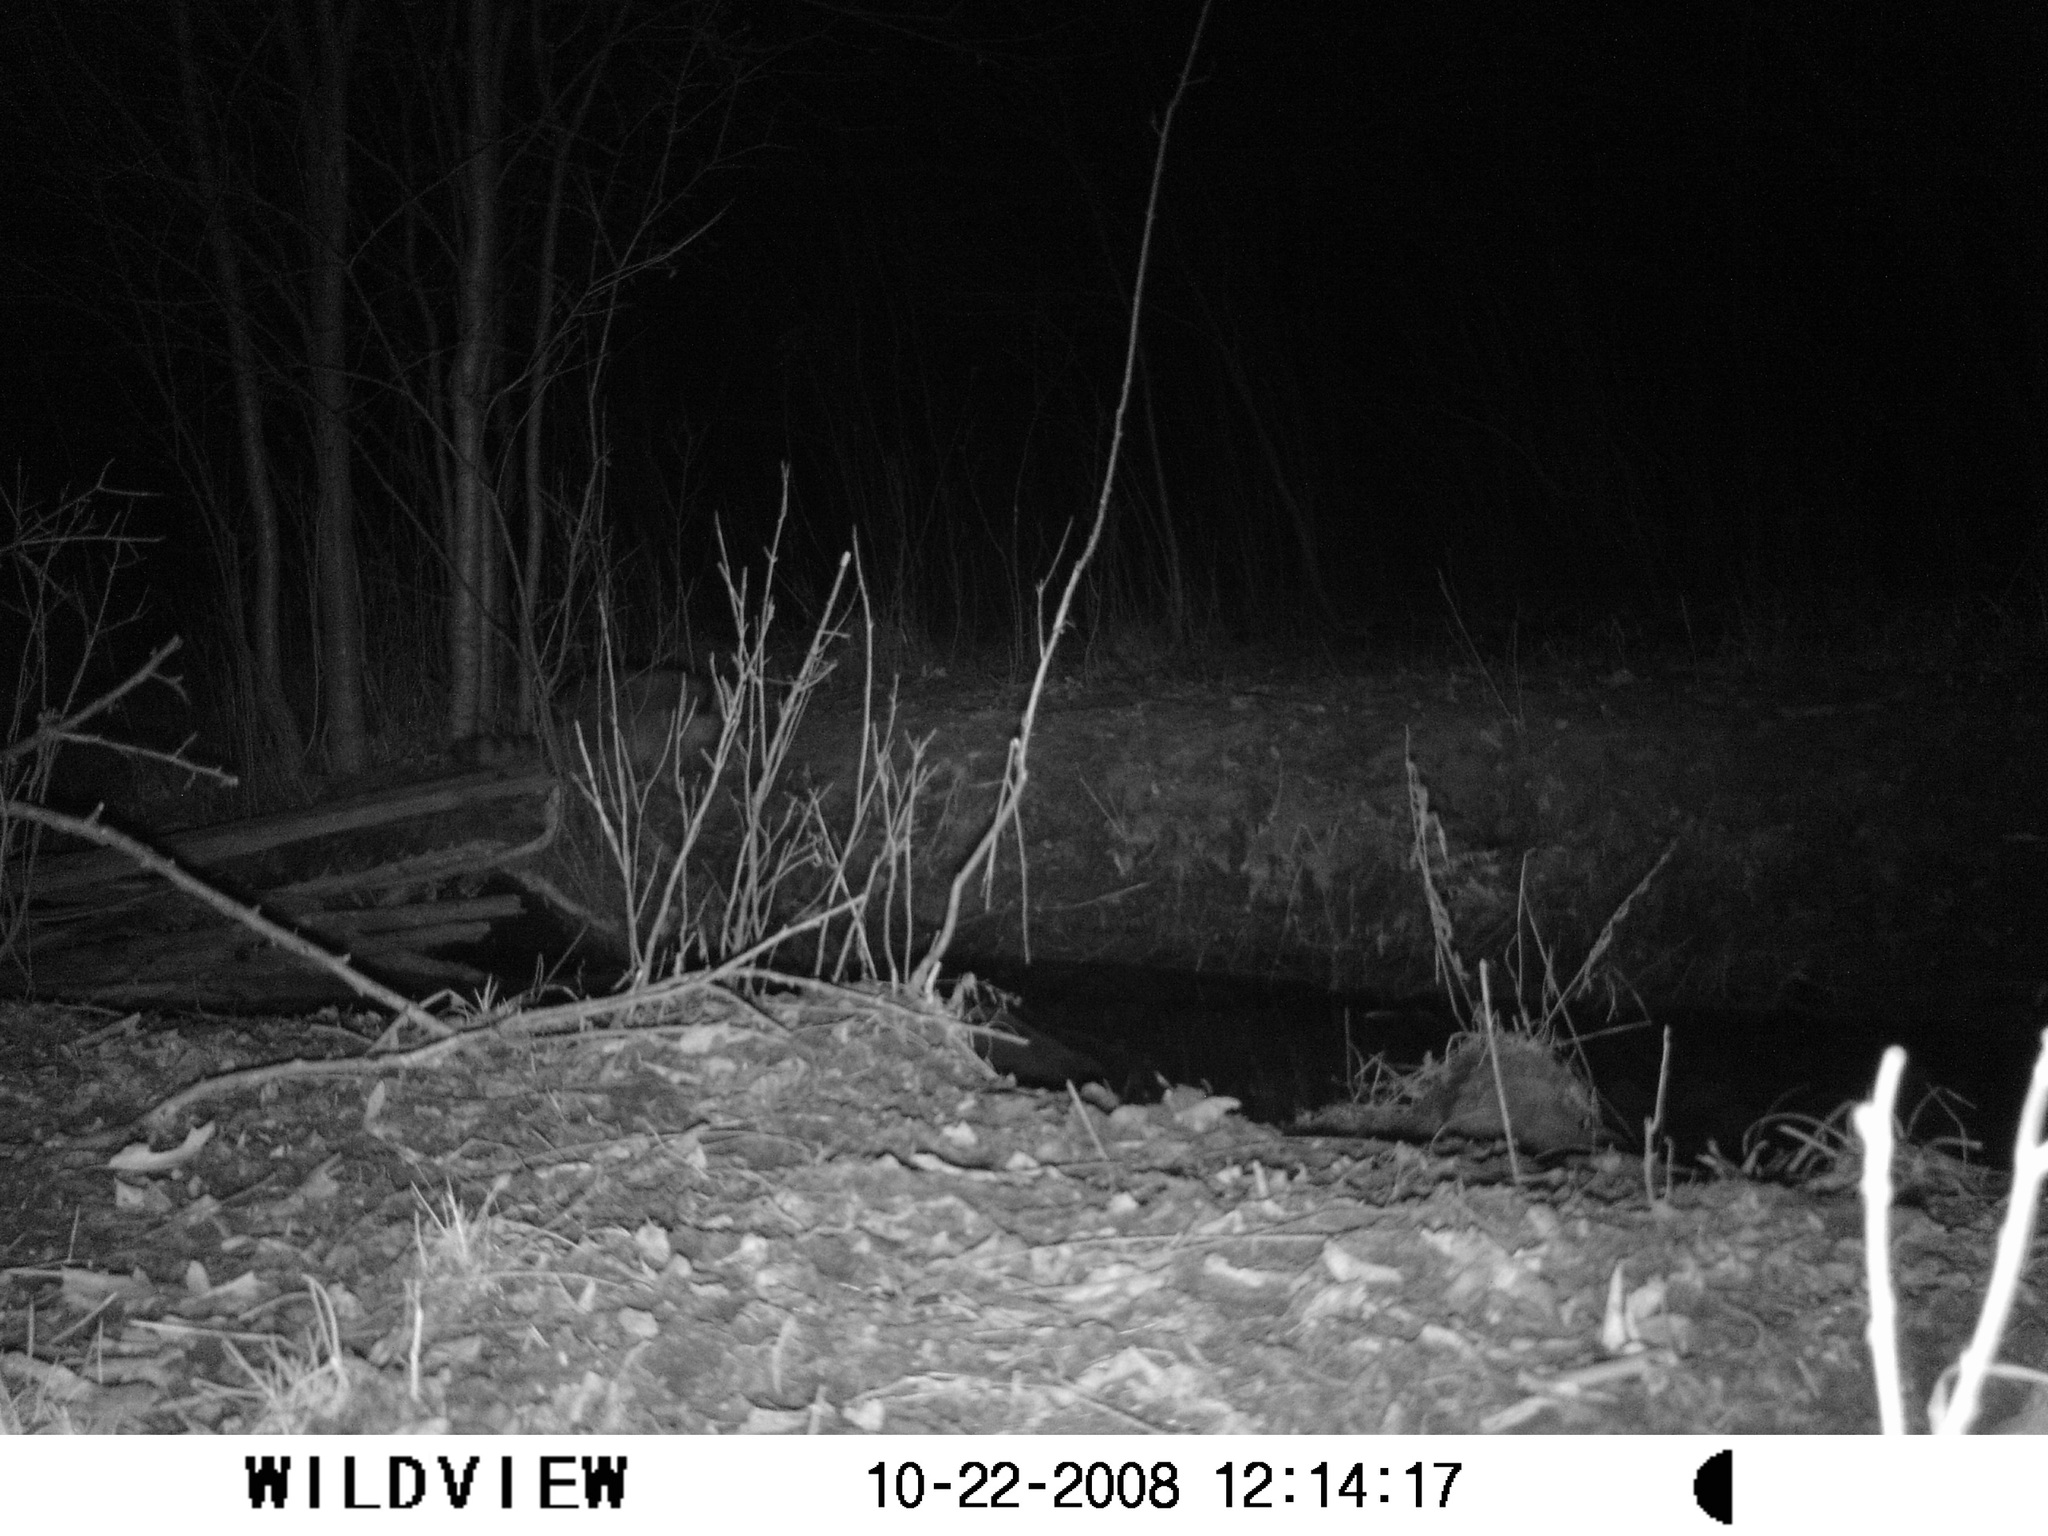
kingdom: Animalia
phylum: Chordata
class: Mammalia
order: Carnivora
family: Procyonidae
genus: Procyon
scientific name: Procyon lotor
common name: Raccoon
